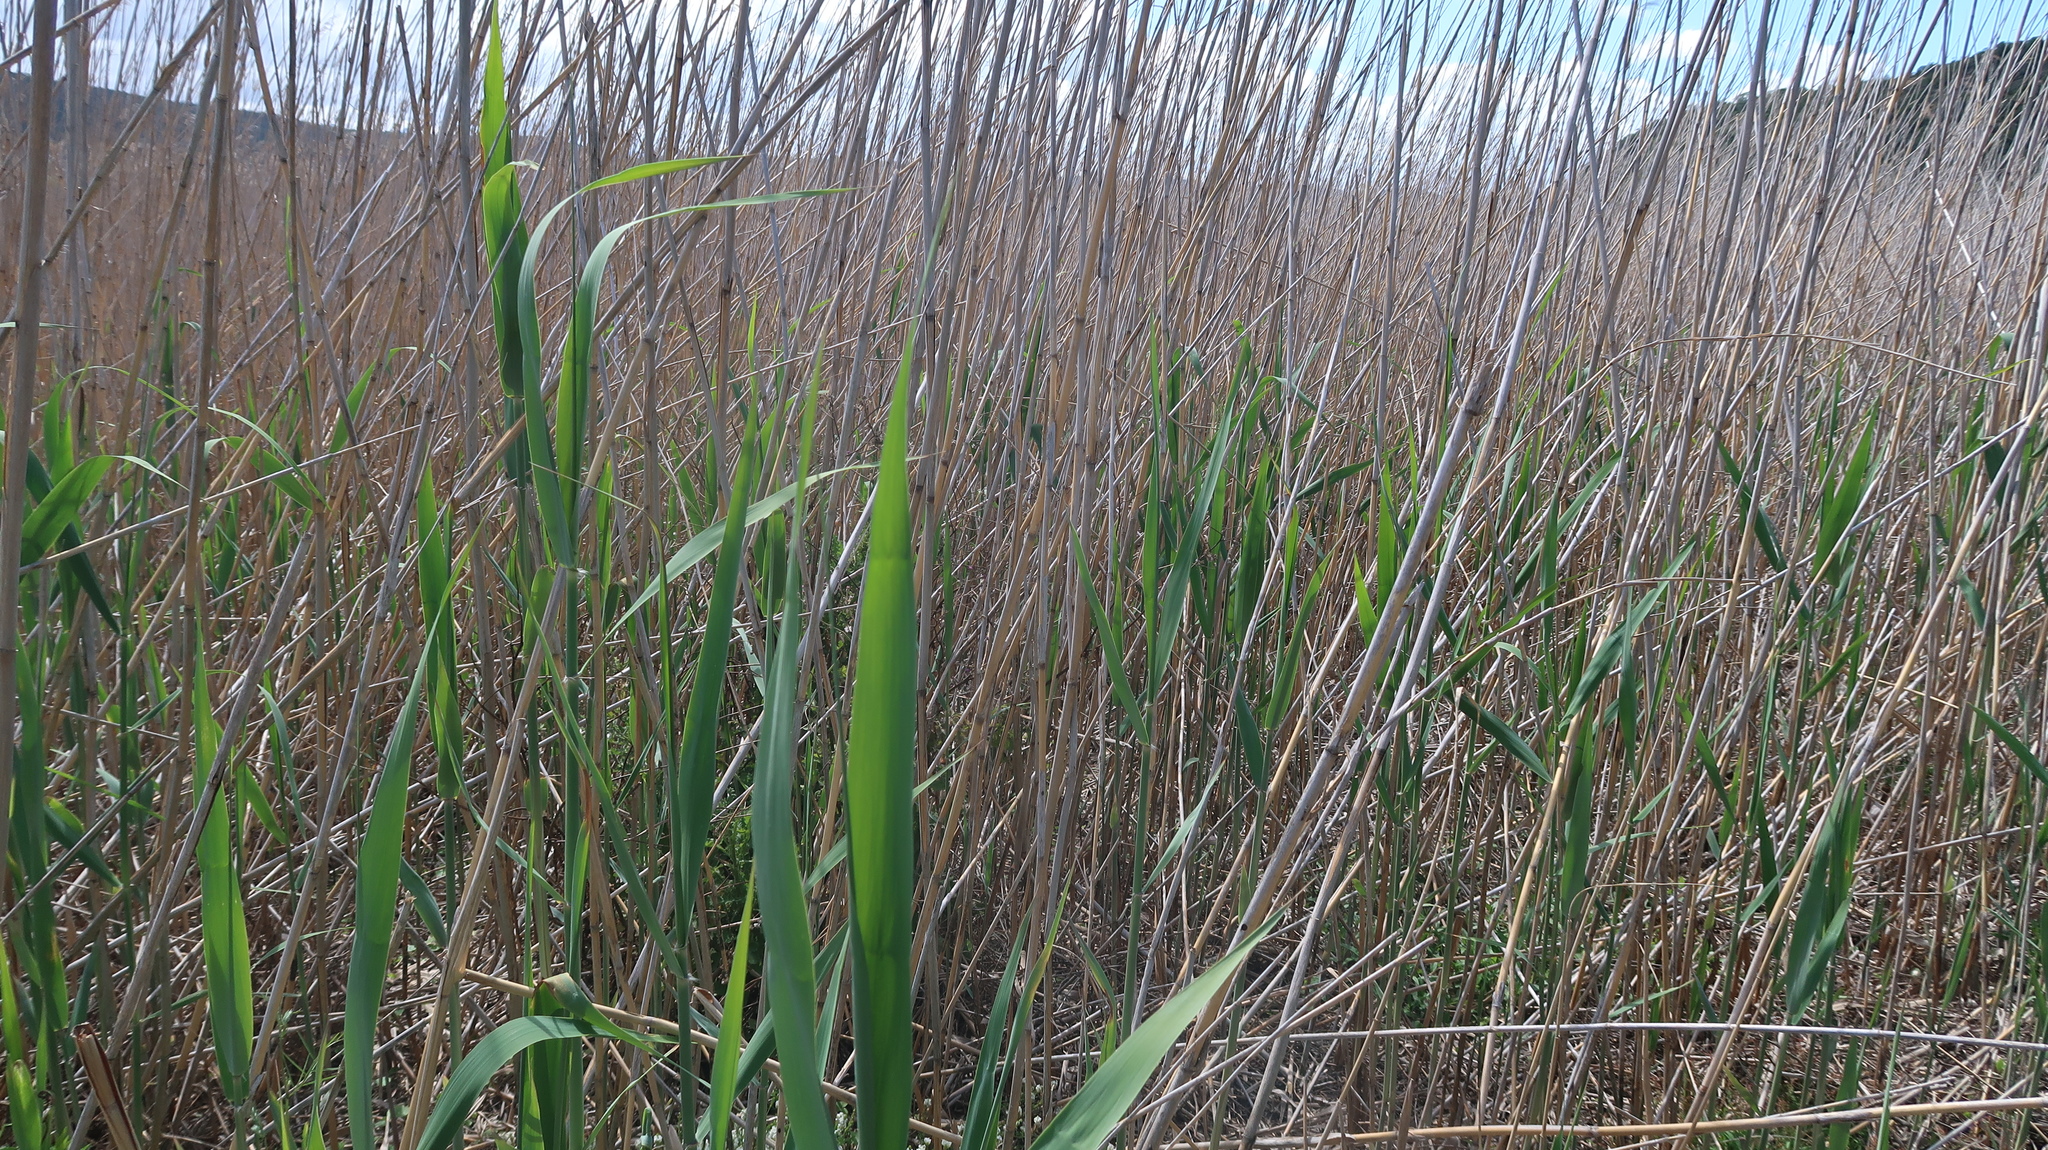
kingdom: Plantae
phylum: Tracheophyta
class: Liliopsida
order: Poales
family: Poaceae
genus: Phragmites
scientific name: Phragmites australis
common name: Common reed
